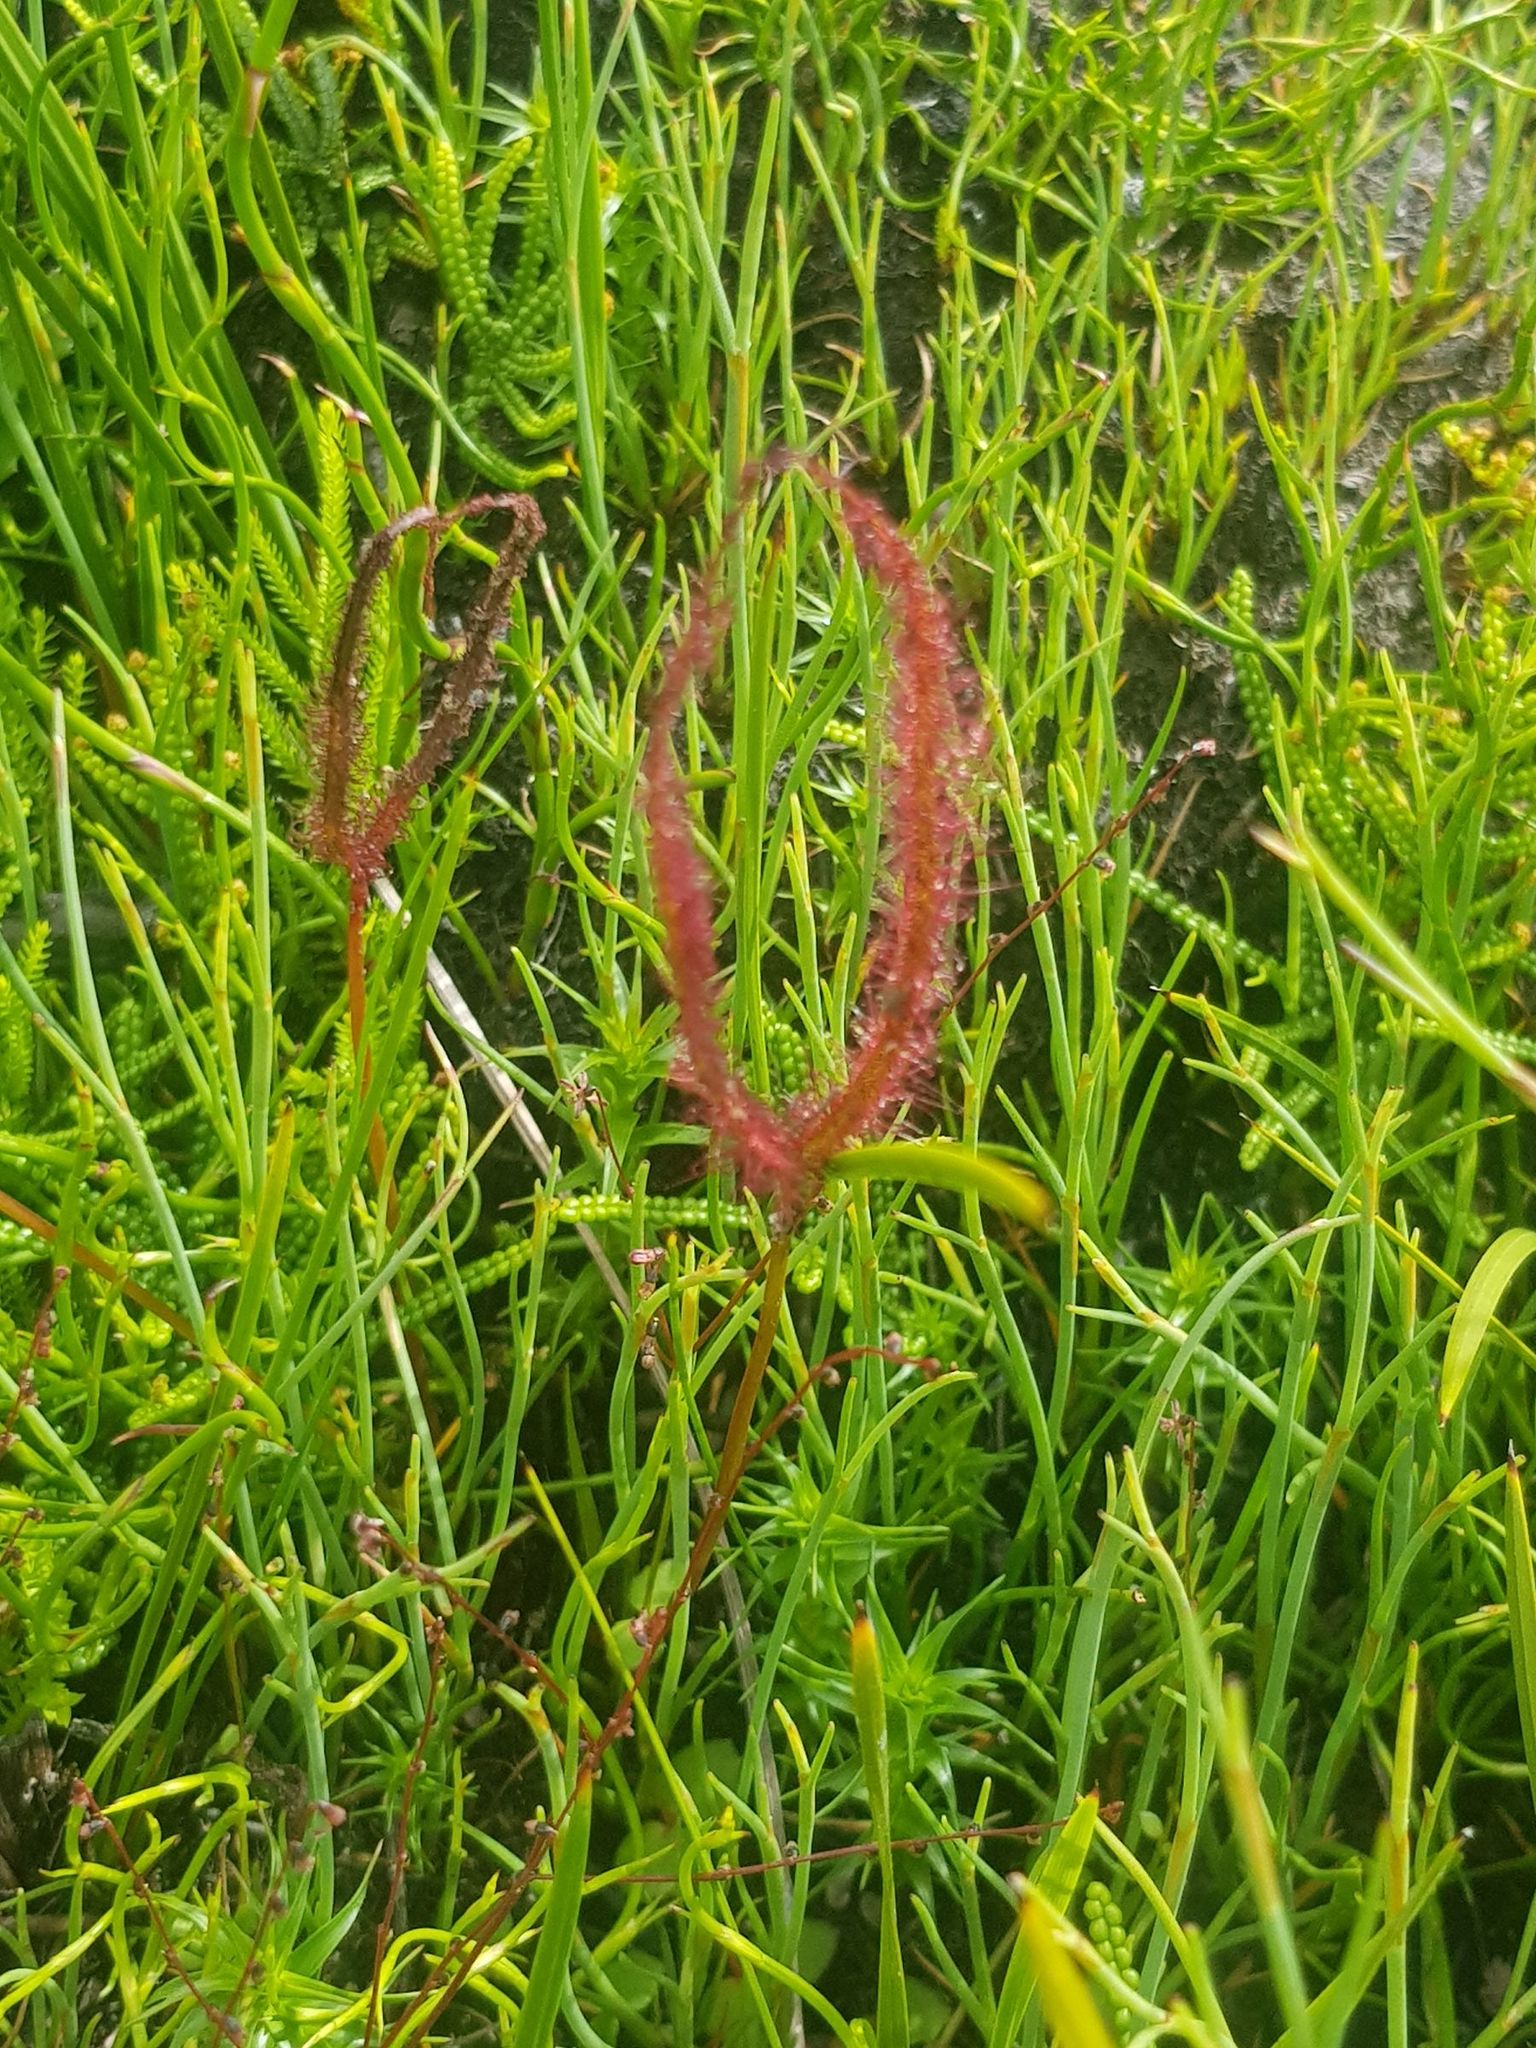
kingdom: Plantae
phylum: Tracheophyta
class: Magnoliopsida
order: Caryophyllales
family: Droseraceae
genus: Drosera
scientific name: Drosera binata
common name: Forked sundew
